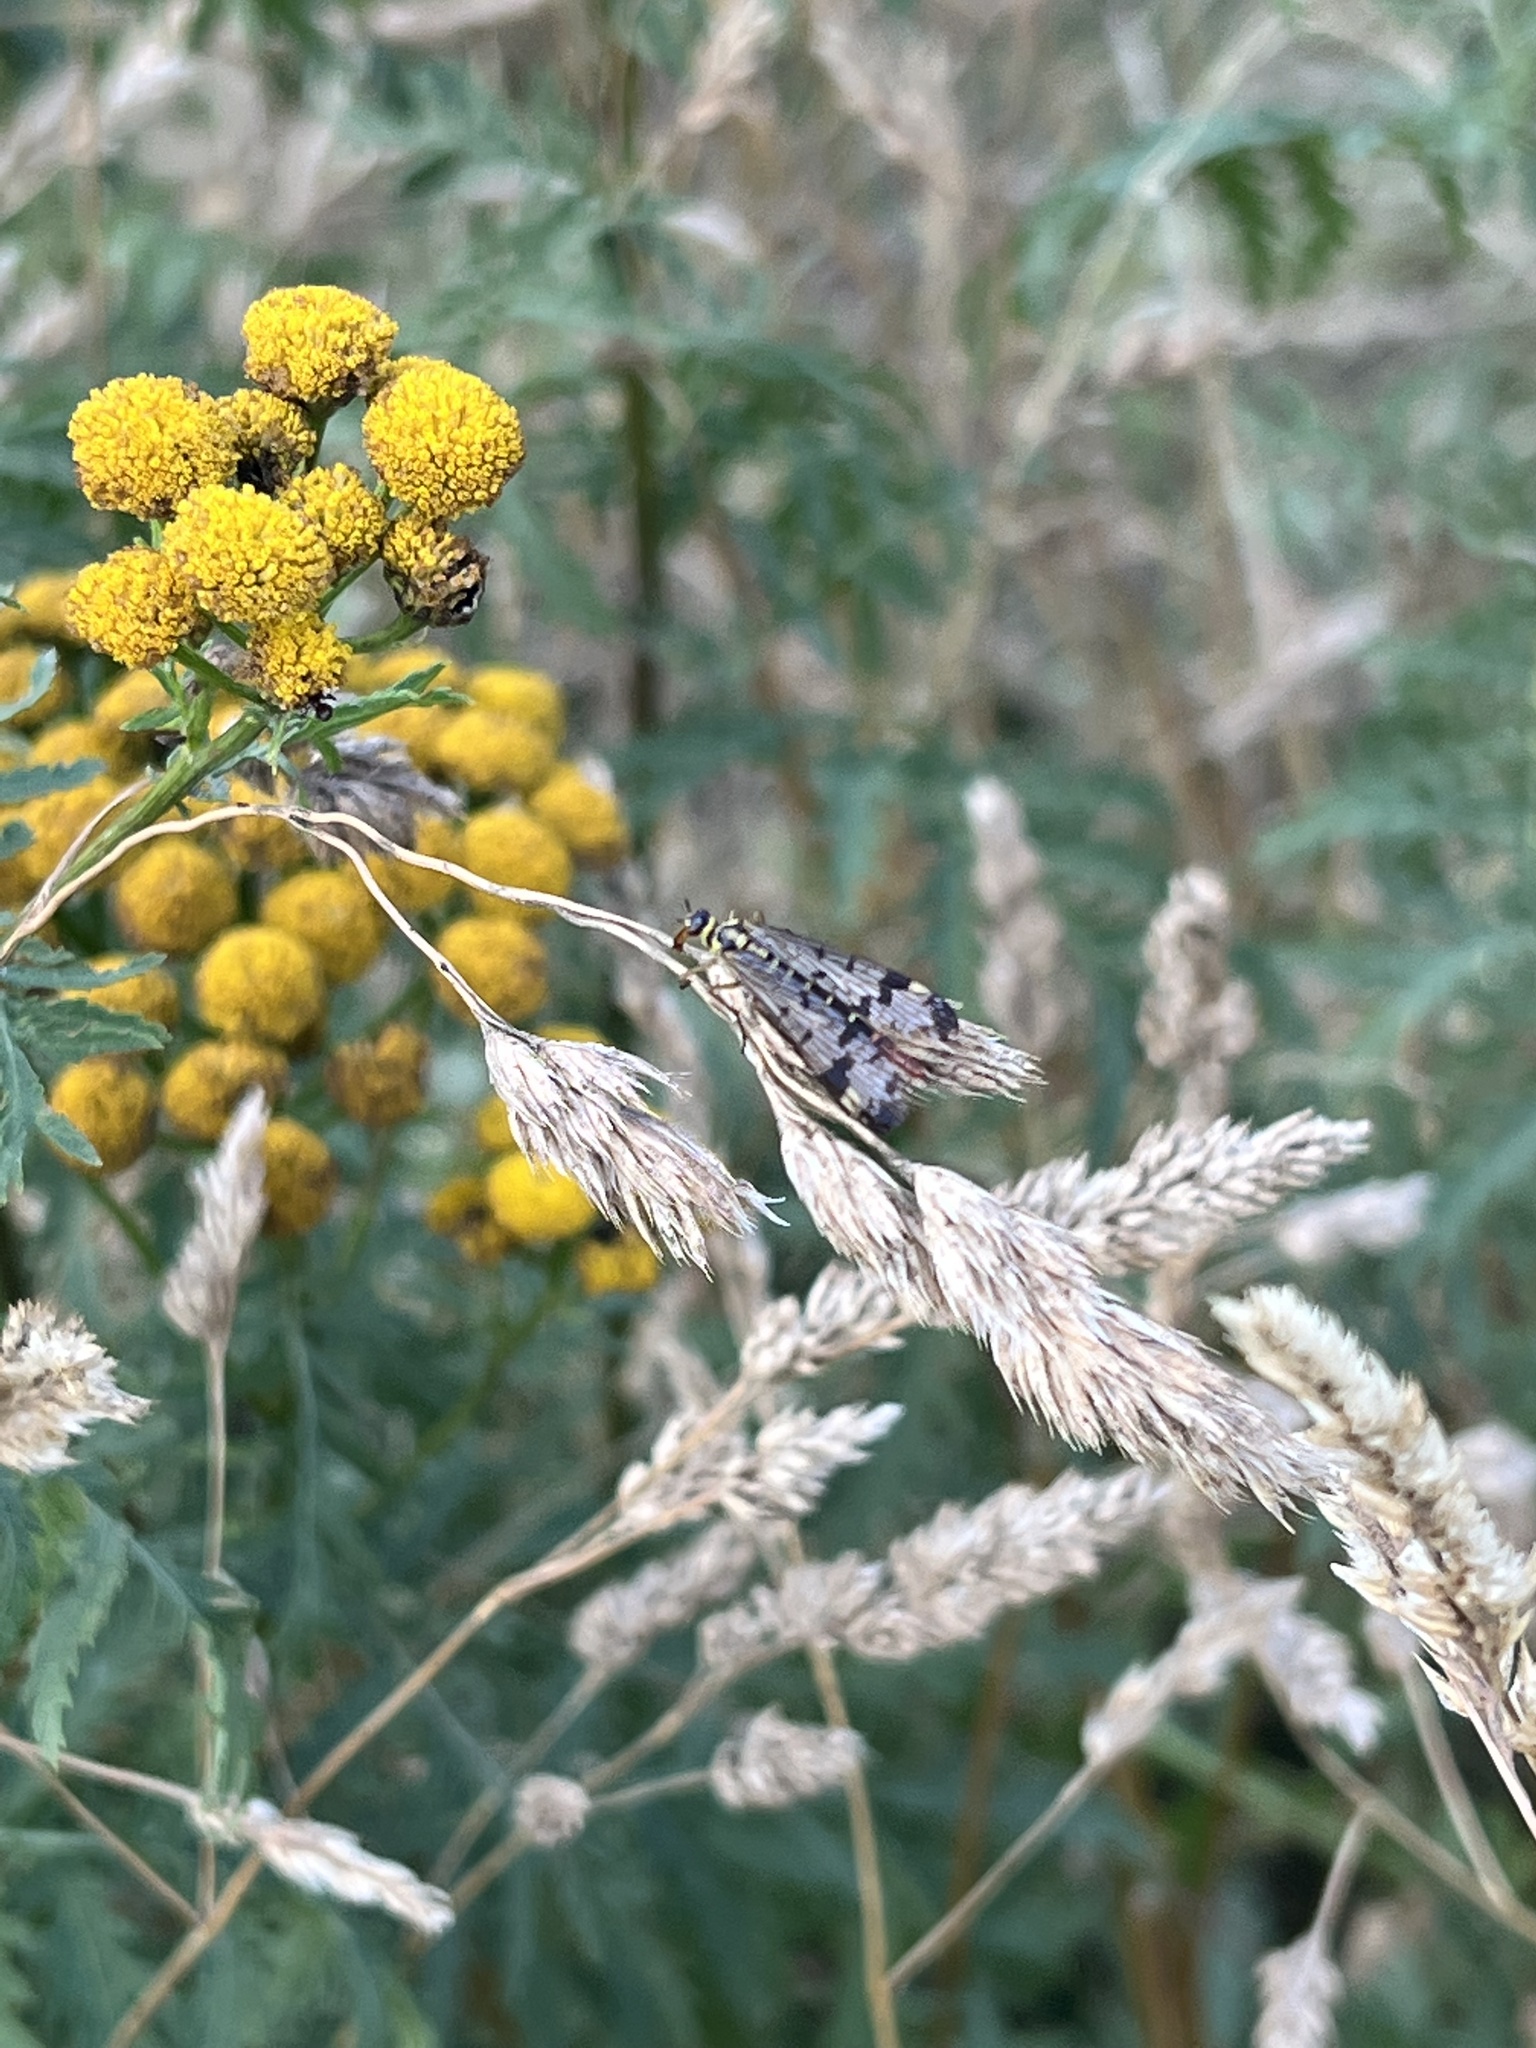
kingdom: Animalia
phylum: Arthropoda
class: Insecta
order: Mecoptera
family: Panorpidae
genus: Panorpa
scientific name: Panorpa communis
